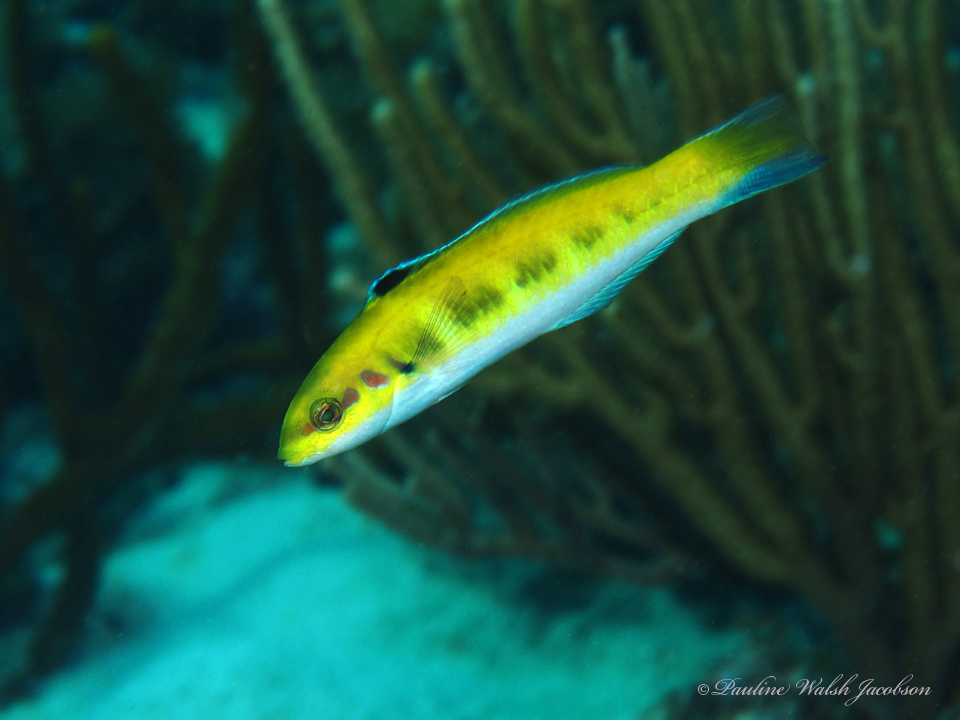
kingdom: Animalia
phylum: Chordata
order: Perciformes
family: Labridae
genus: Thalassoma
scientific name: Thalassoma bifasciatum
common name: Bluehead wrasse
